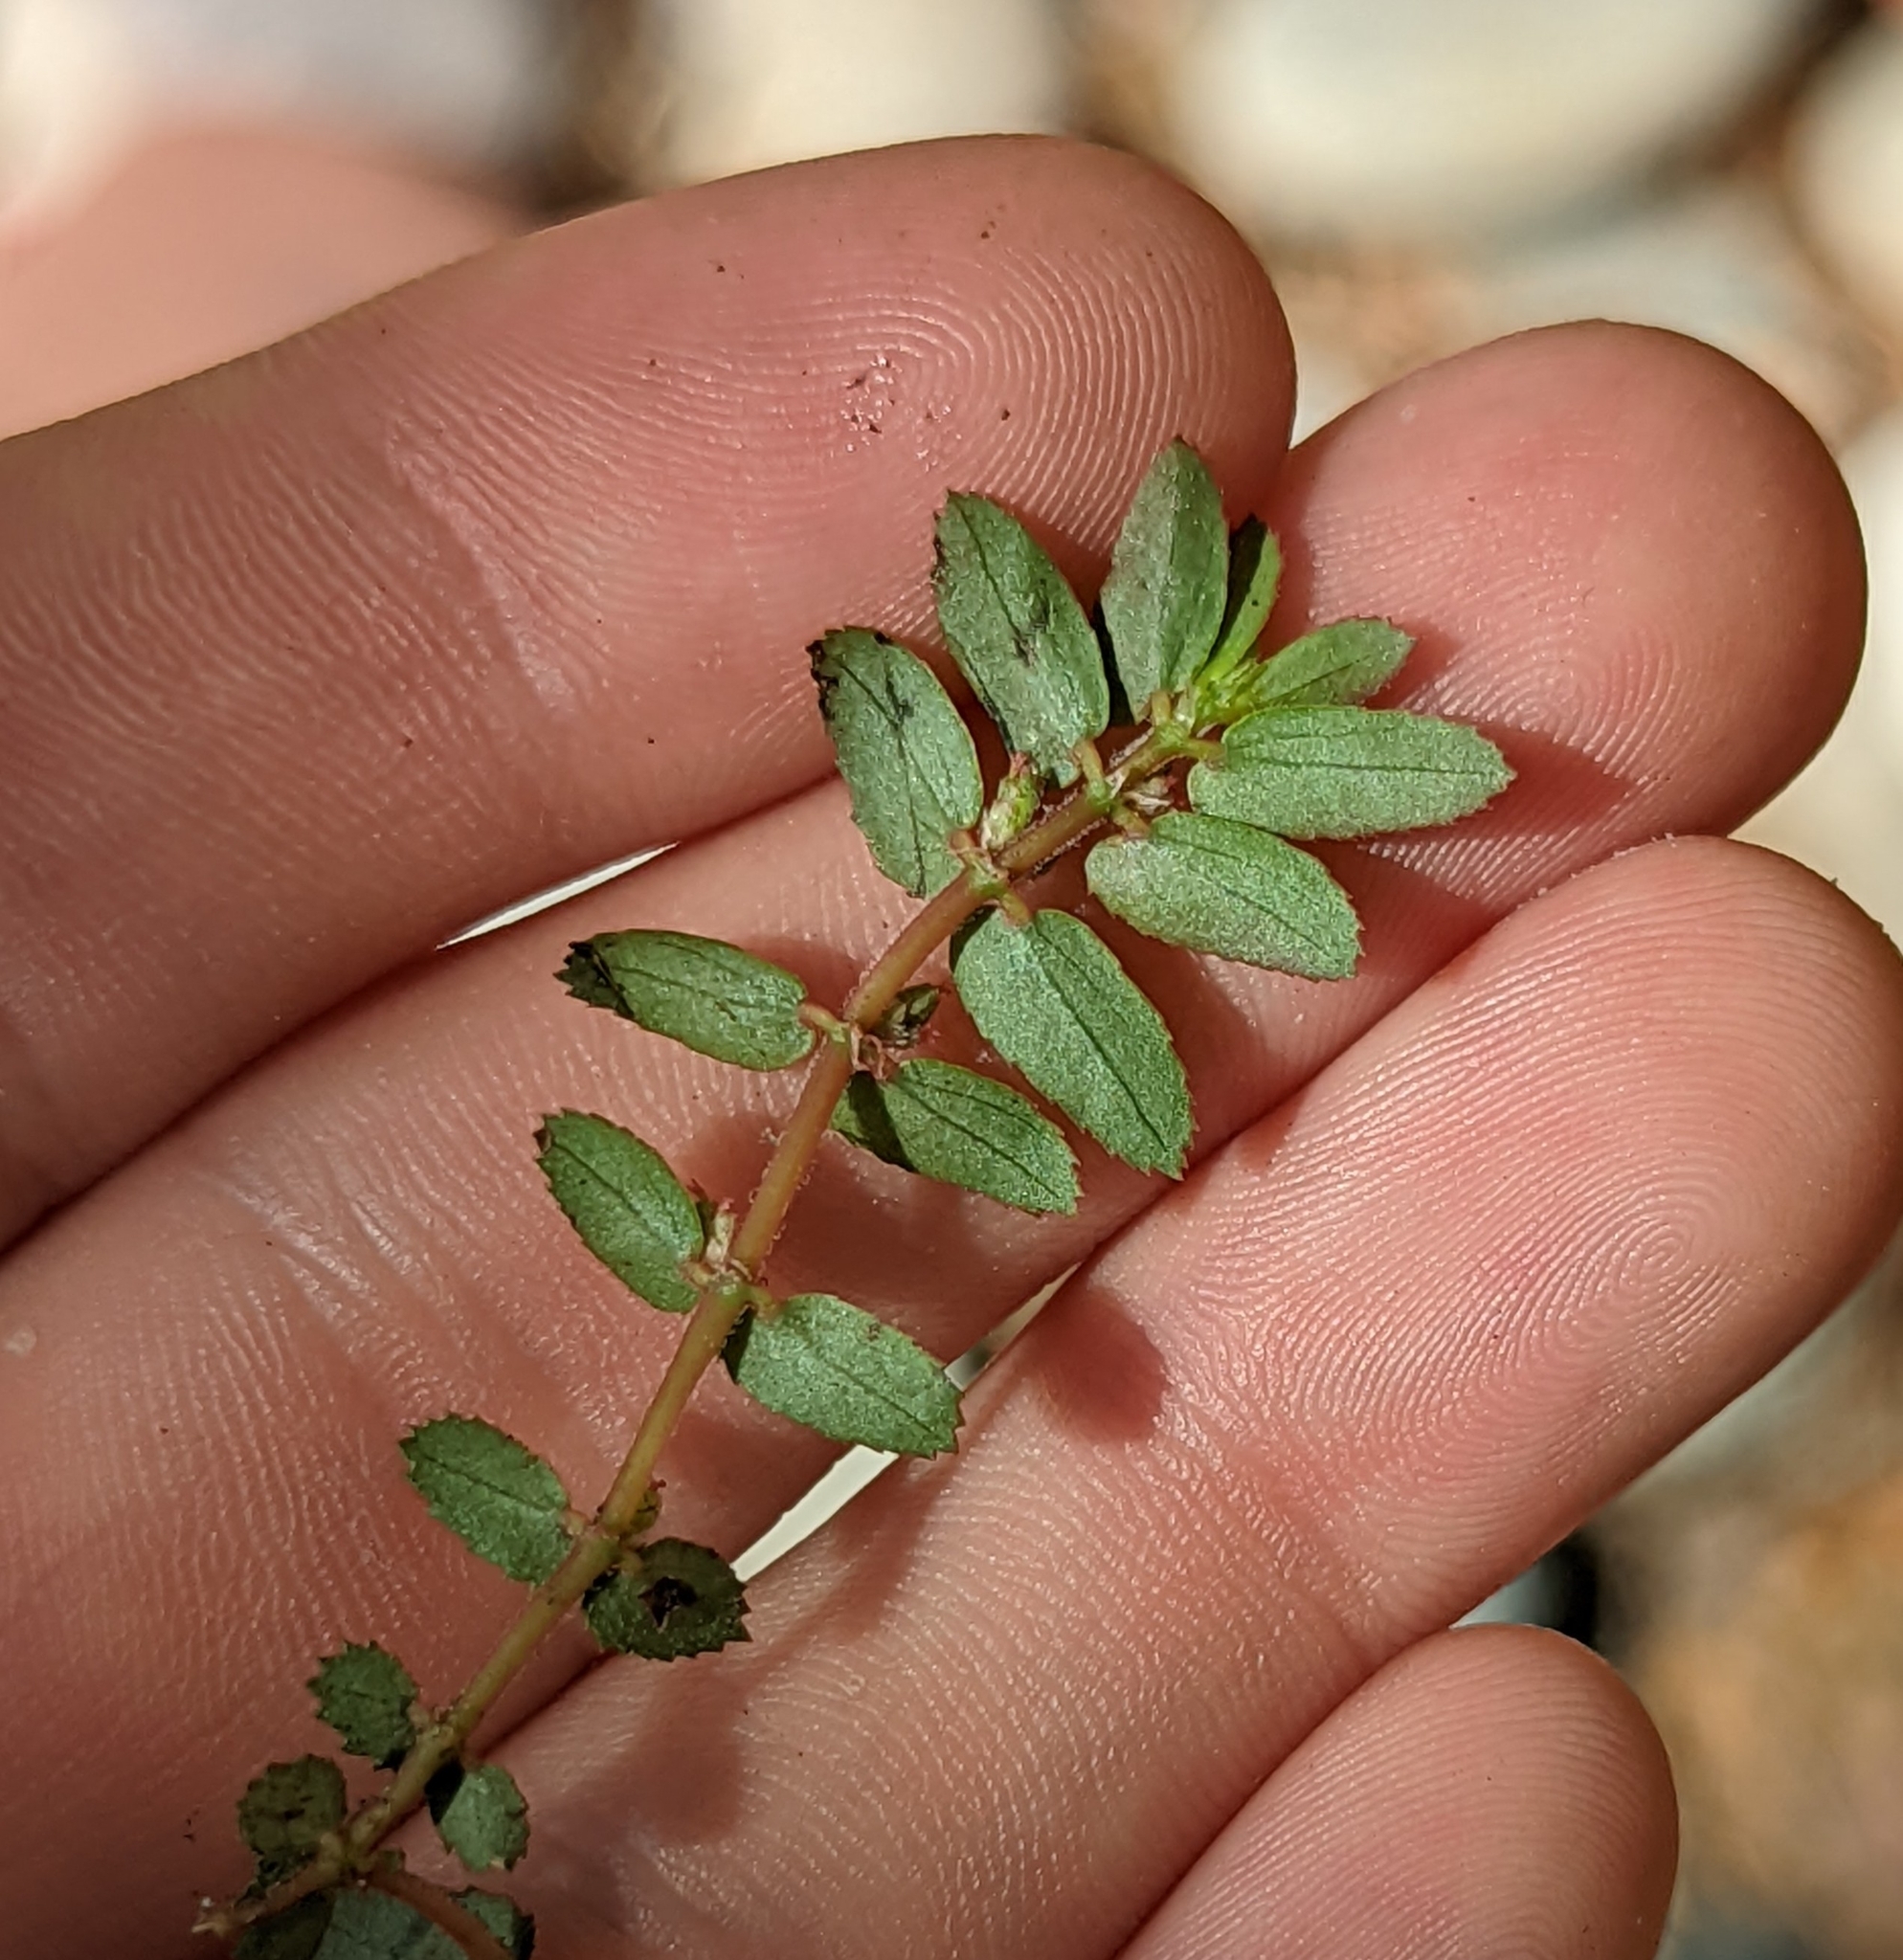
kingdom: Plantae
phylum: Tracheophyta
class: Magnoliopsida
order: Malpighiales
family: Euphorbiaceae
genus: Euphorbia
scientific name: Euphorbia thymifolia
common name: Gulf sandmat
